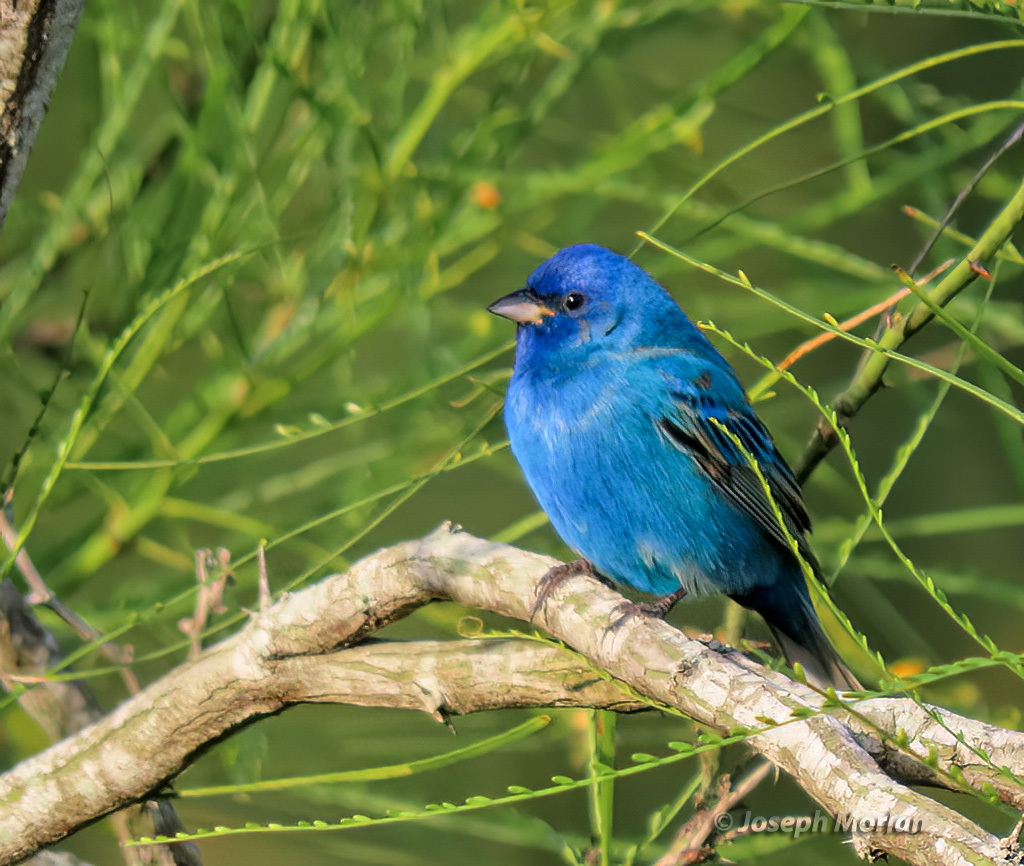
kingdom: Animalia
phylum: Chordata
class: Aves
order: Passeriformes
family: Cardinalidae
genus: Passerina
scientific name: Passerina cyanea
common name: Indigo bunting
